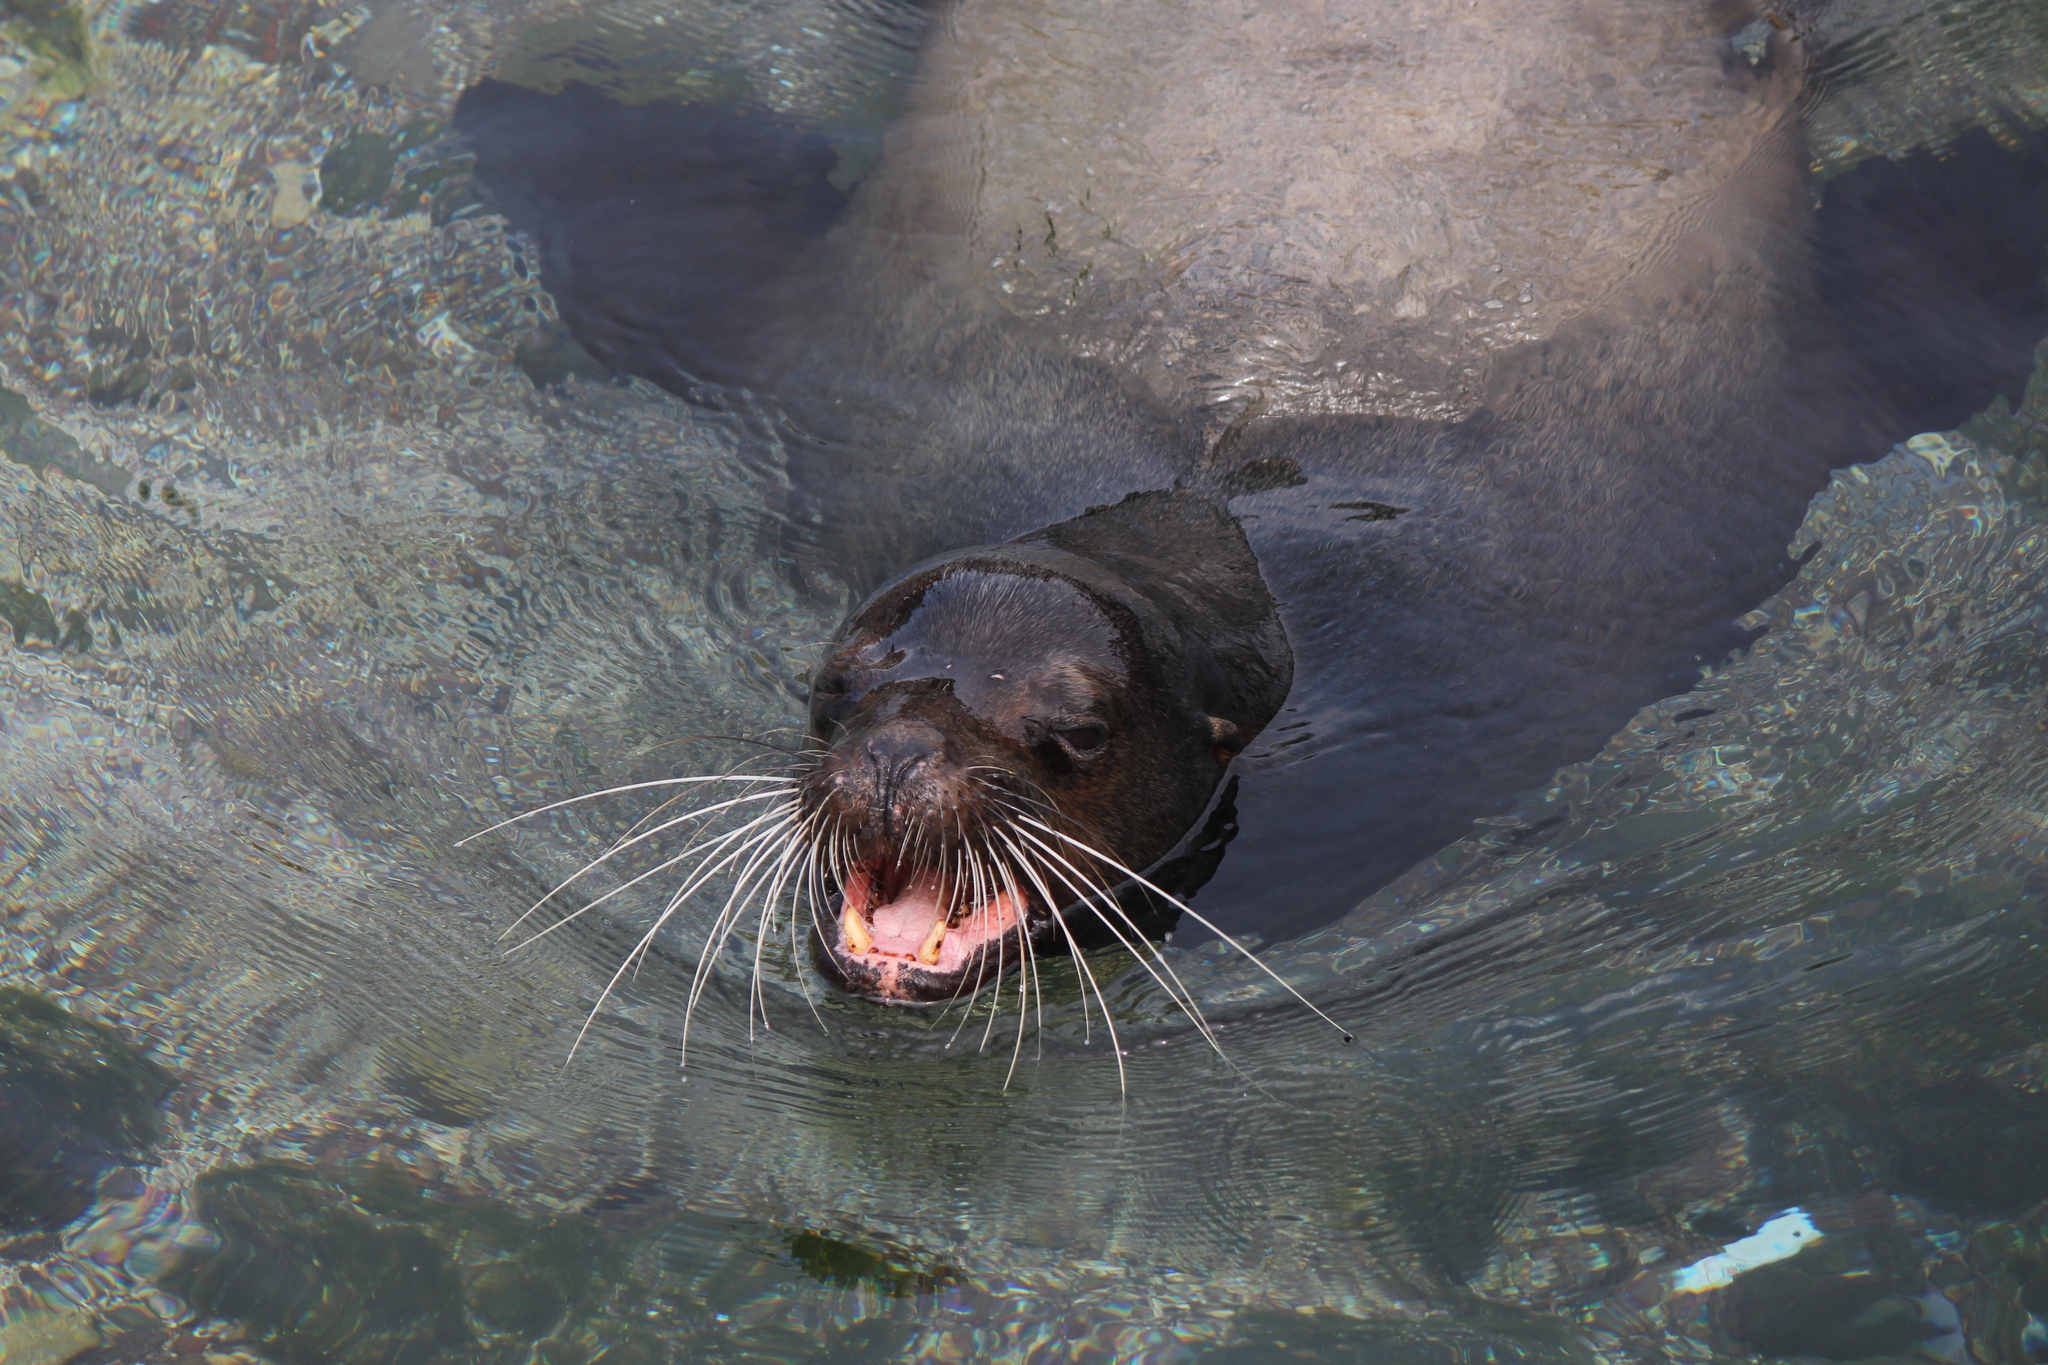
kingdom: Animalia
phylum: Chordata
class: Mammalia
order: Carnivora
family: Otariidae
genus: Zalophus
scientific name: Zalophus wollebaeki
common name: Galapagos sea lion
